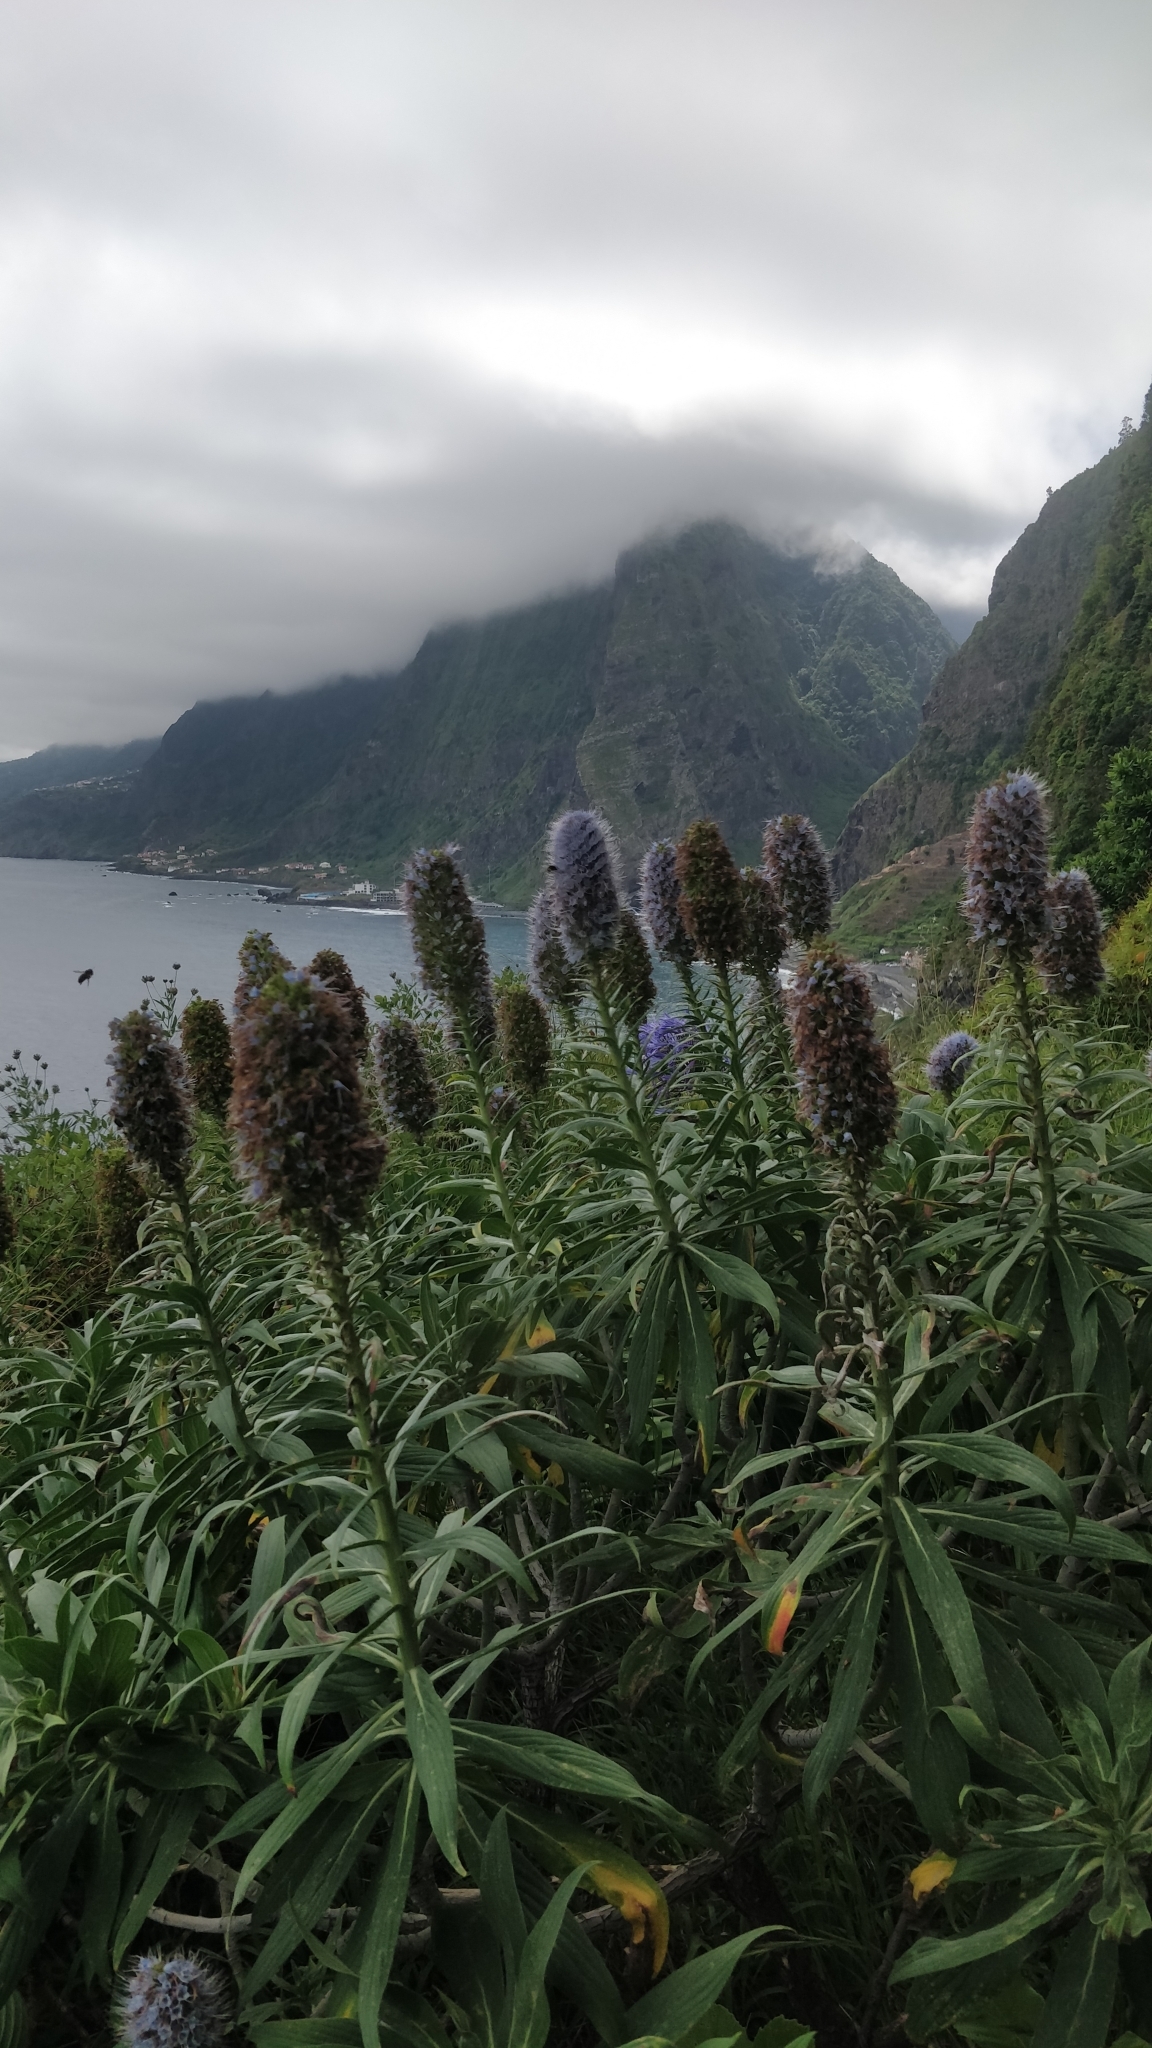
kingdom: Plantae
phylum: Tracheophyta
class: Magnoliopsida
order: Boraginales
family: Boraginaceae
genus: Echium
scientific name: Echium nervosum
